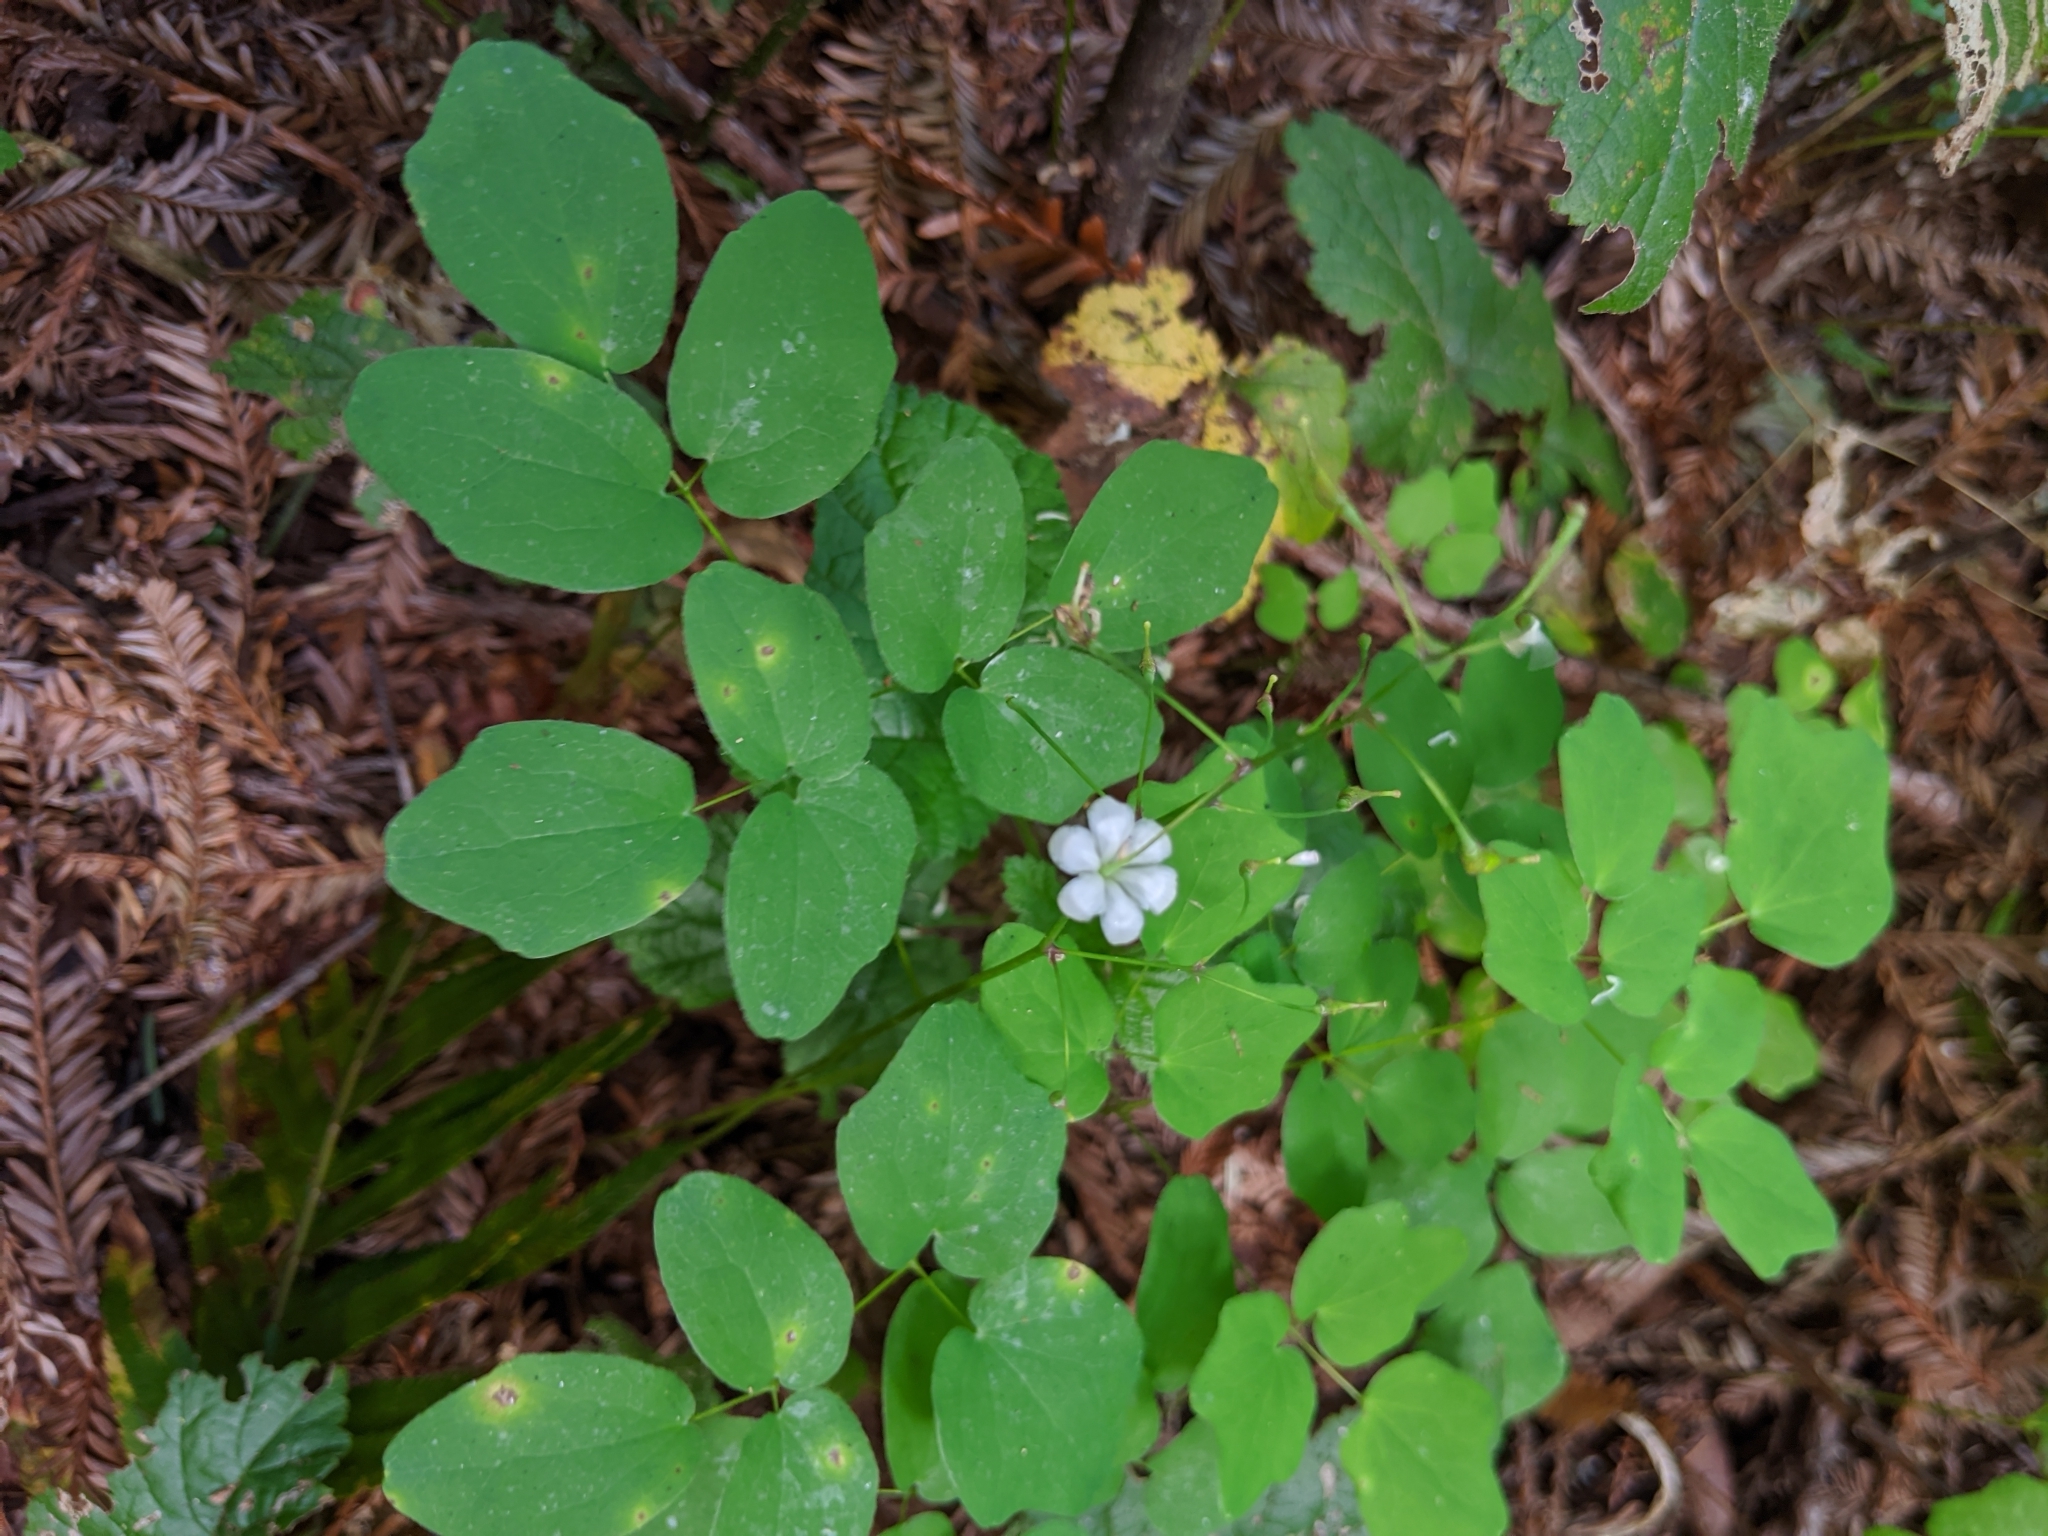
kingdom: Plantae
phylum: Tracheophyta
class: Magnoliopsida
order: Ranunculales
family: Berberidaceae
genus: Vancouveria
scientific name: Vancouveria hexandra
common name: Northern inside-out-flower
